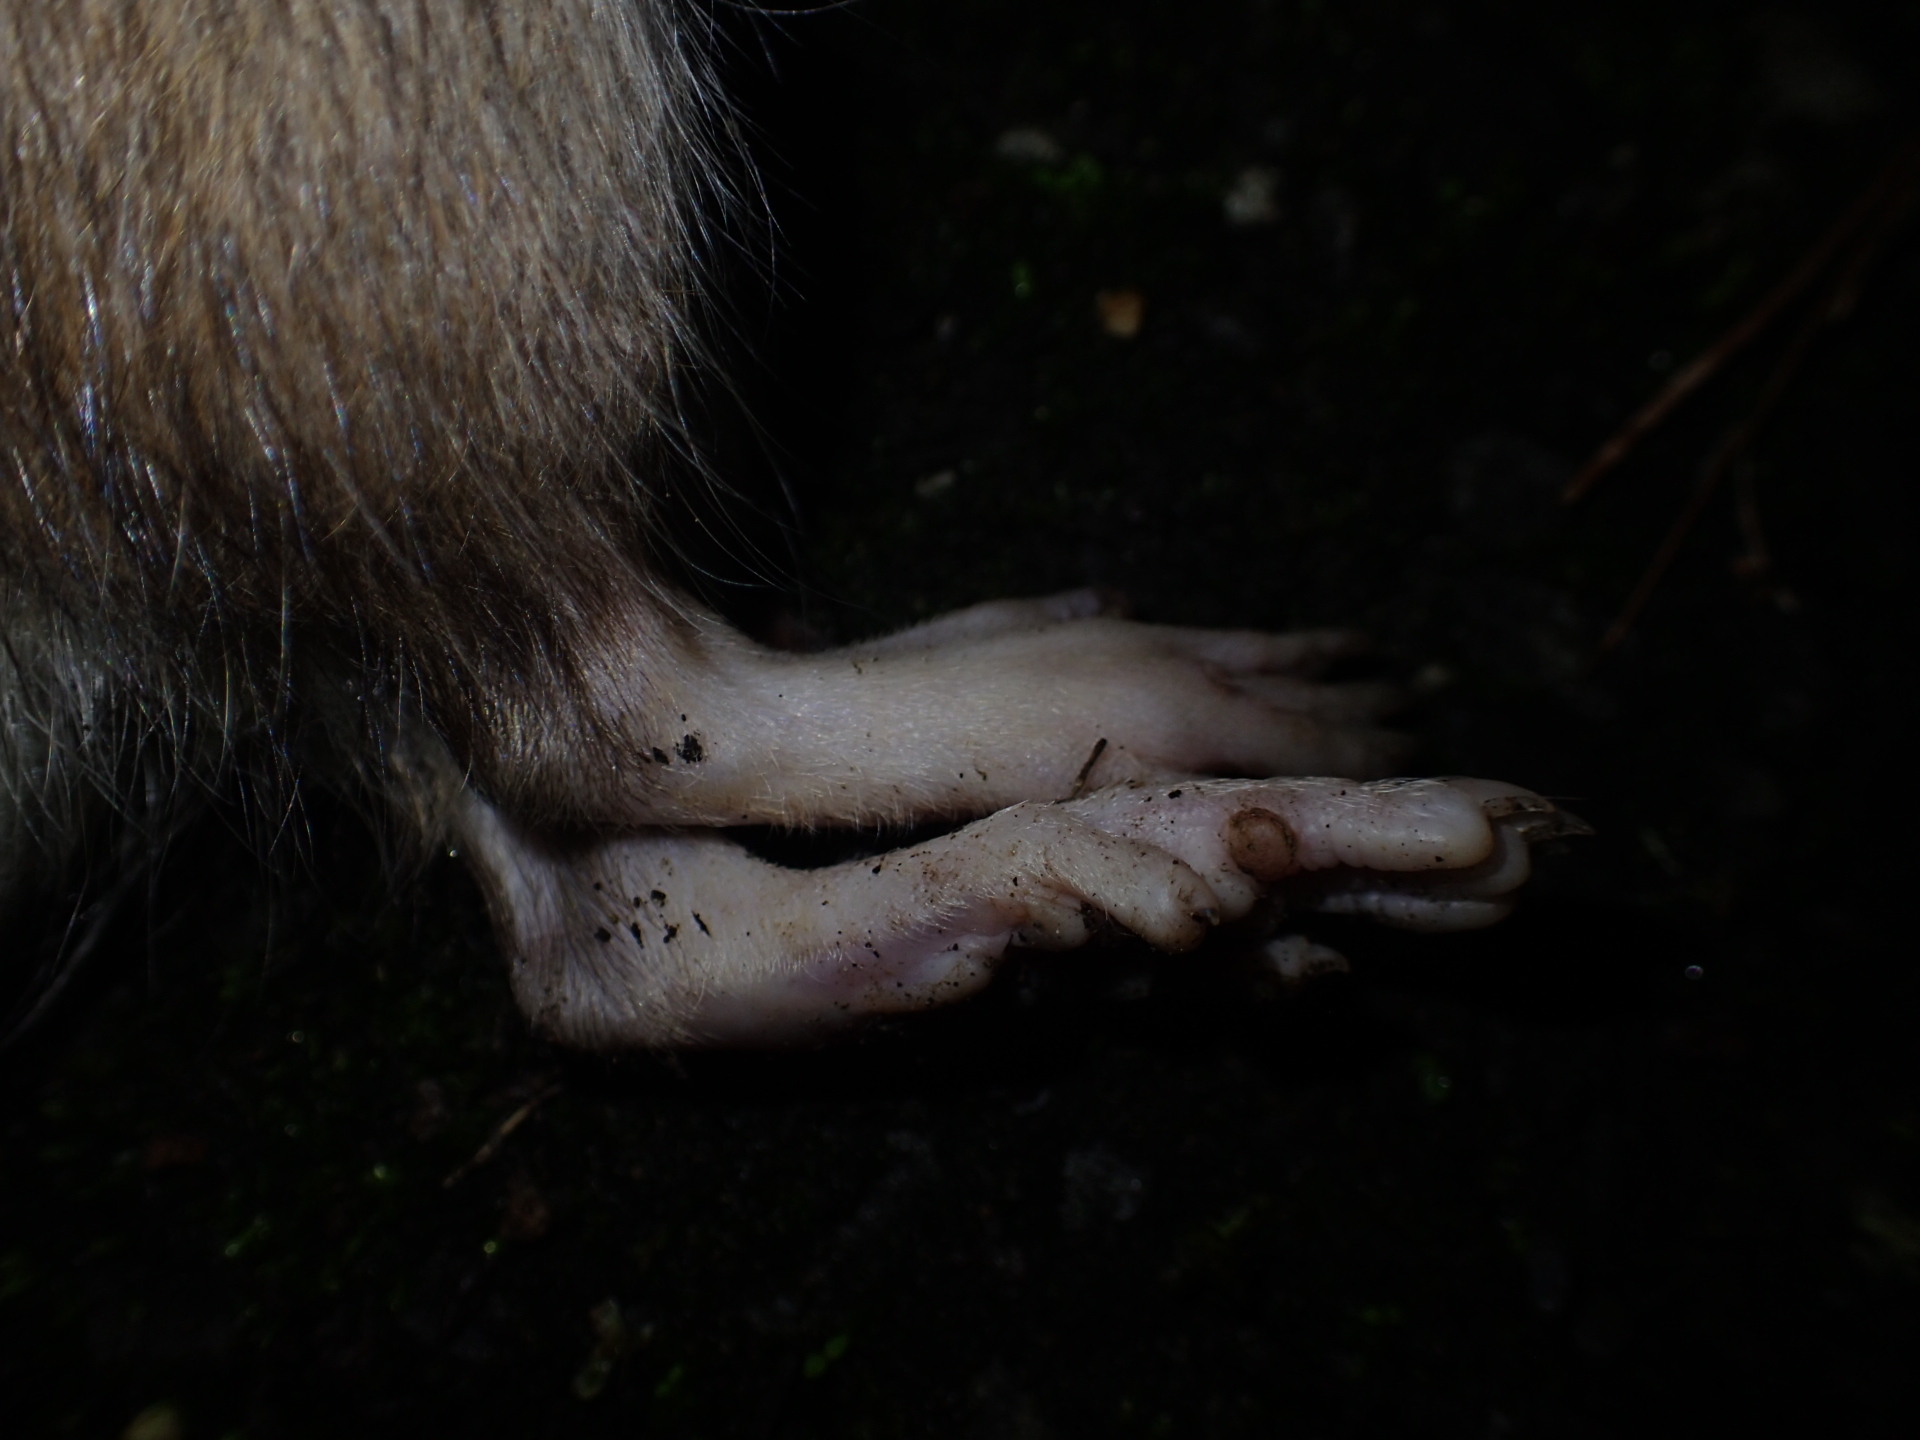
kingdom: Animalia
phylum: Chordata
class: Mammalia
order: Rodentia
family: Muridae
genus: Rattus
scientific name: Rattus norvegicus
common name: Brown rat
